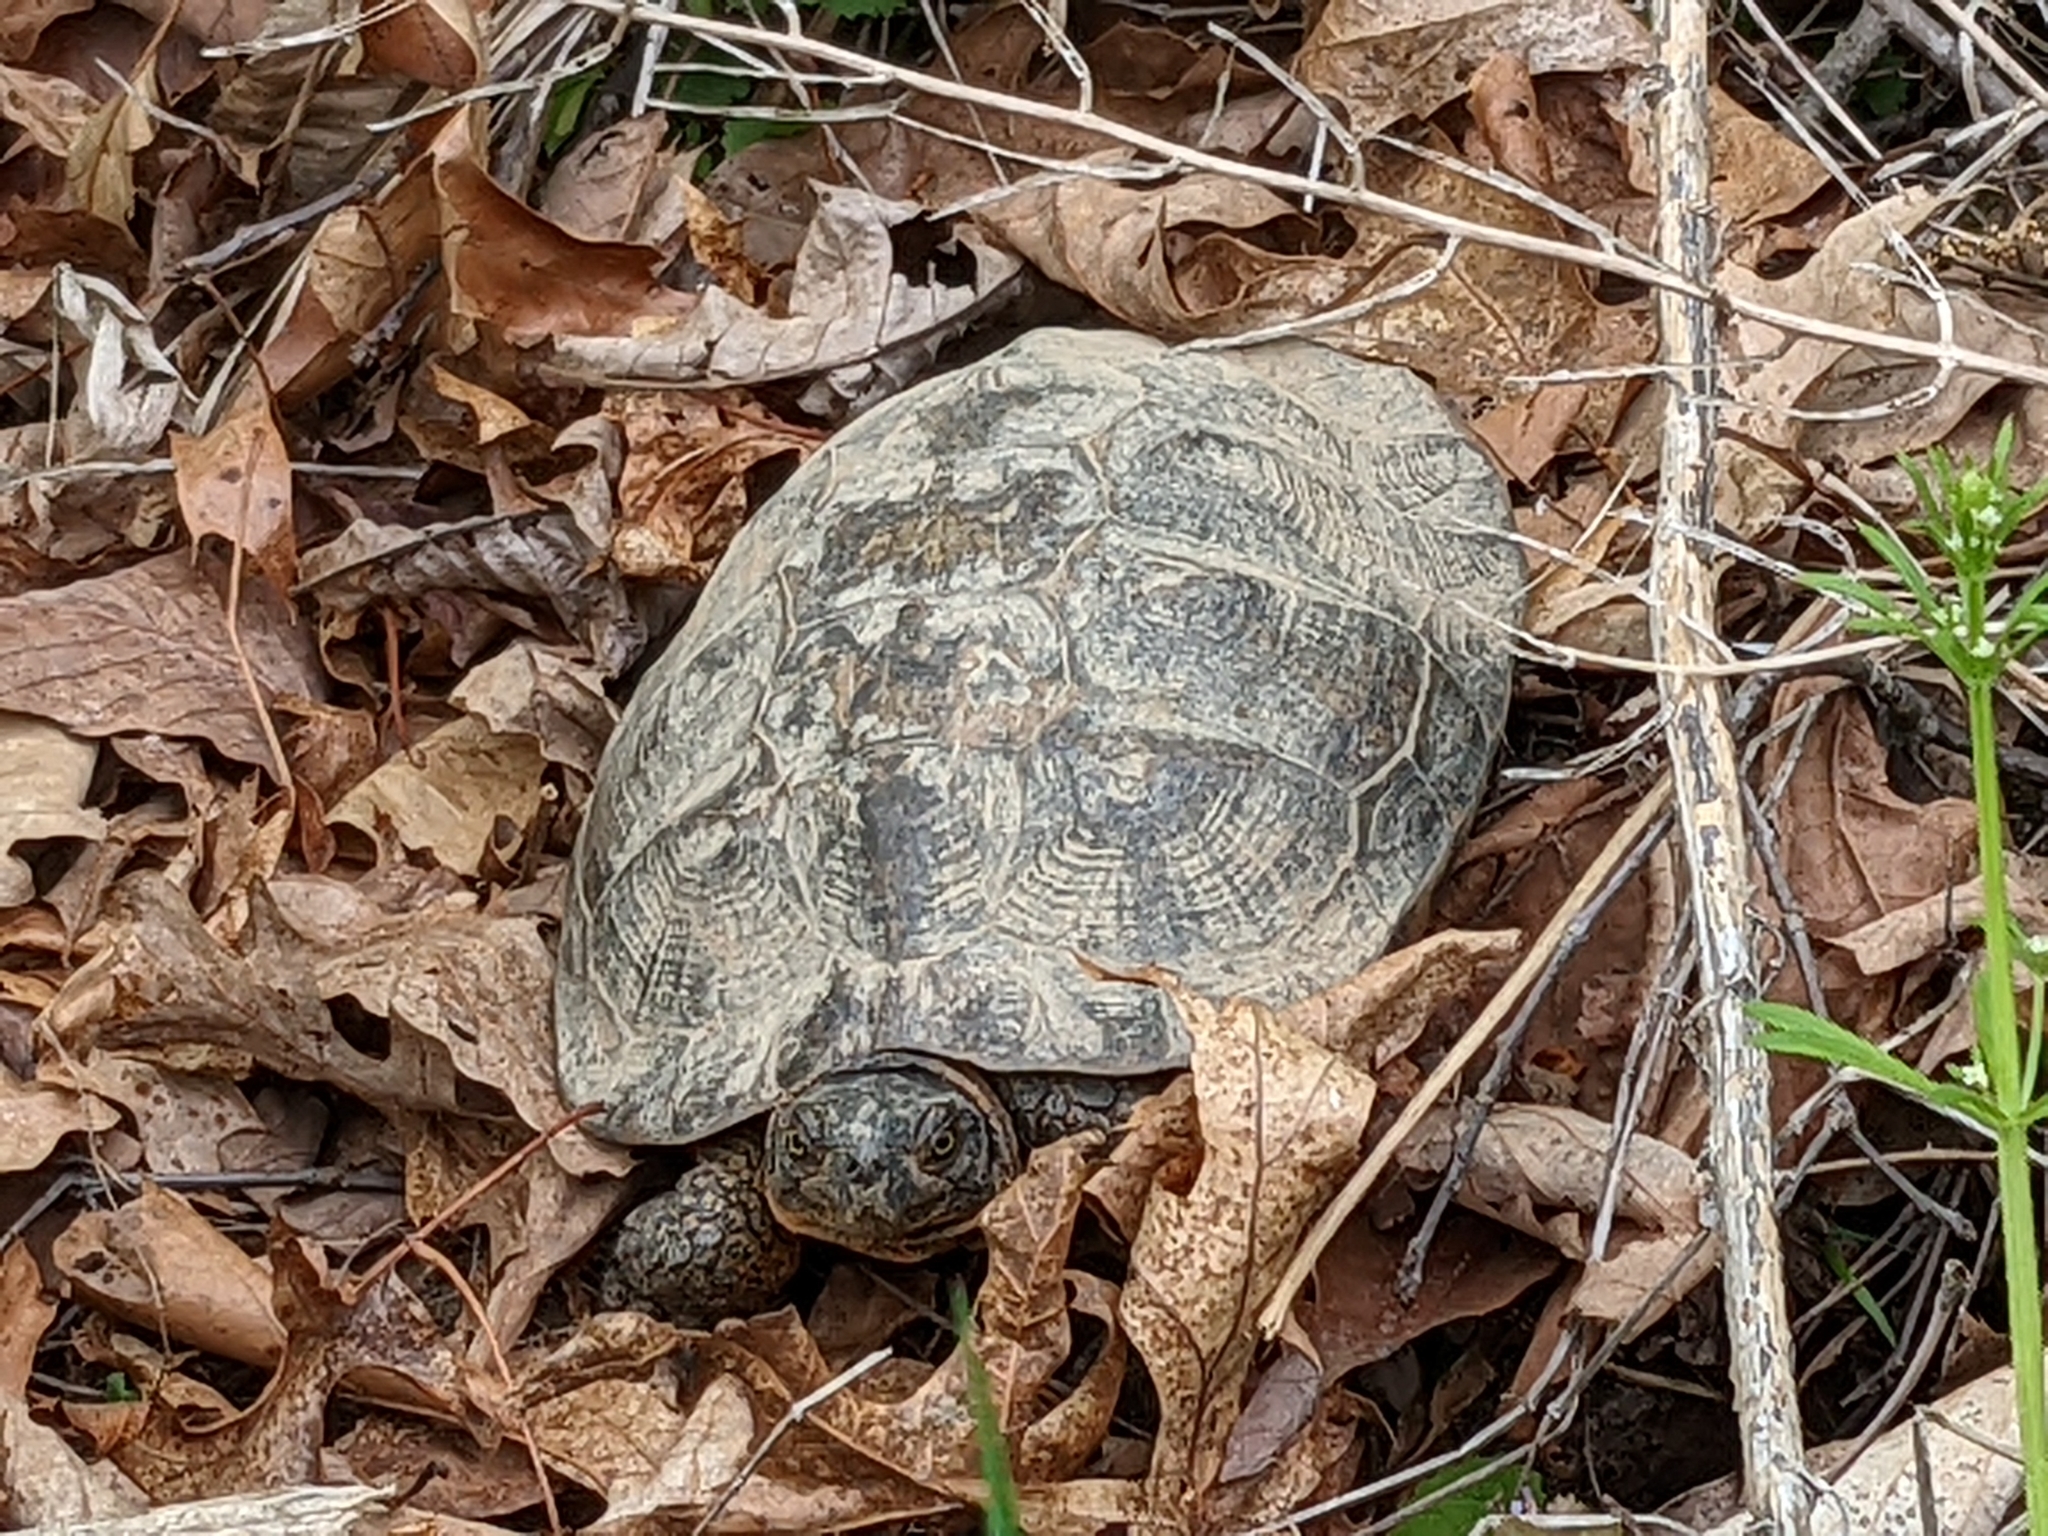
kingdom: Animalia
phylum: Chordata
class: Testudines
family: Emydidae
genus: Glyptemys
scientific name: Glyptemys insculpta
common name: Wood turtle
